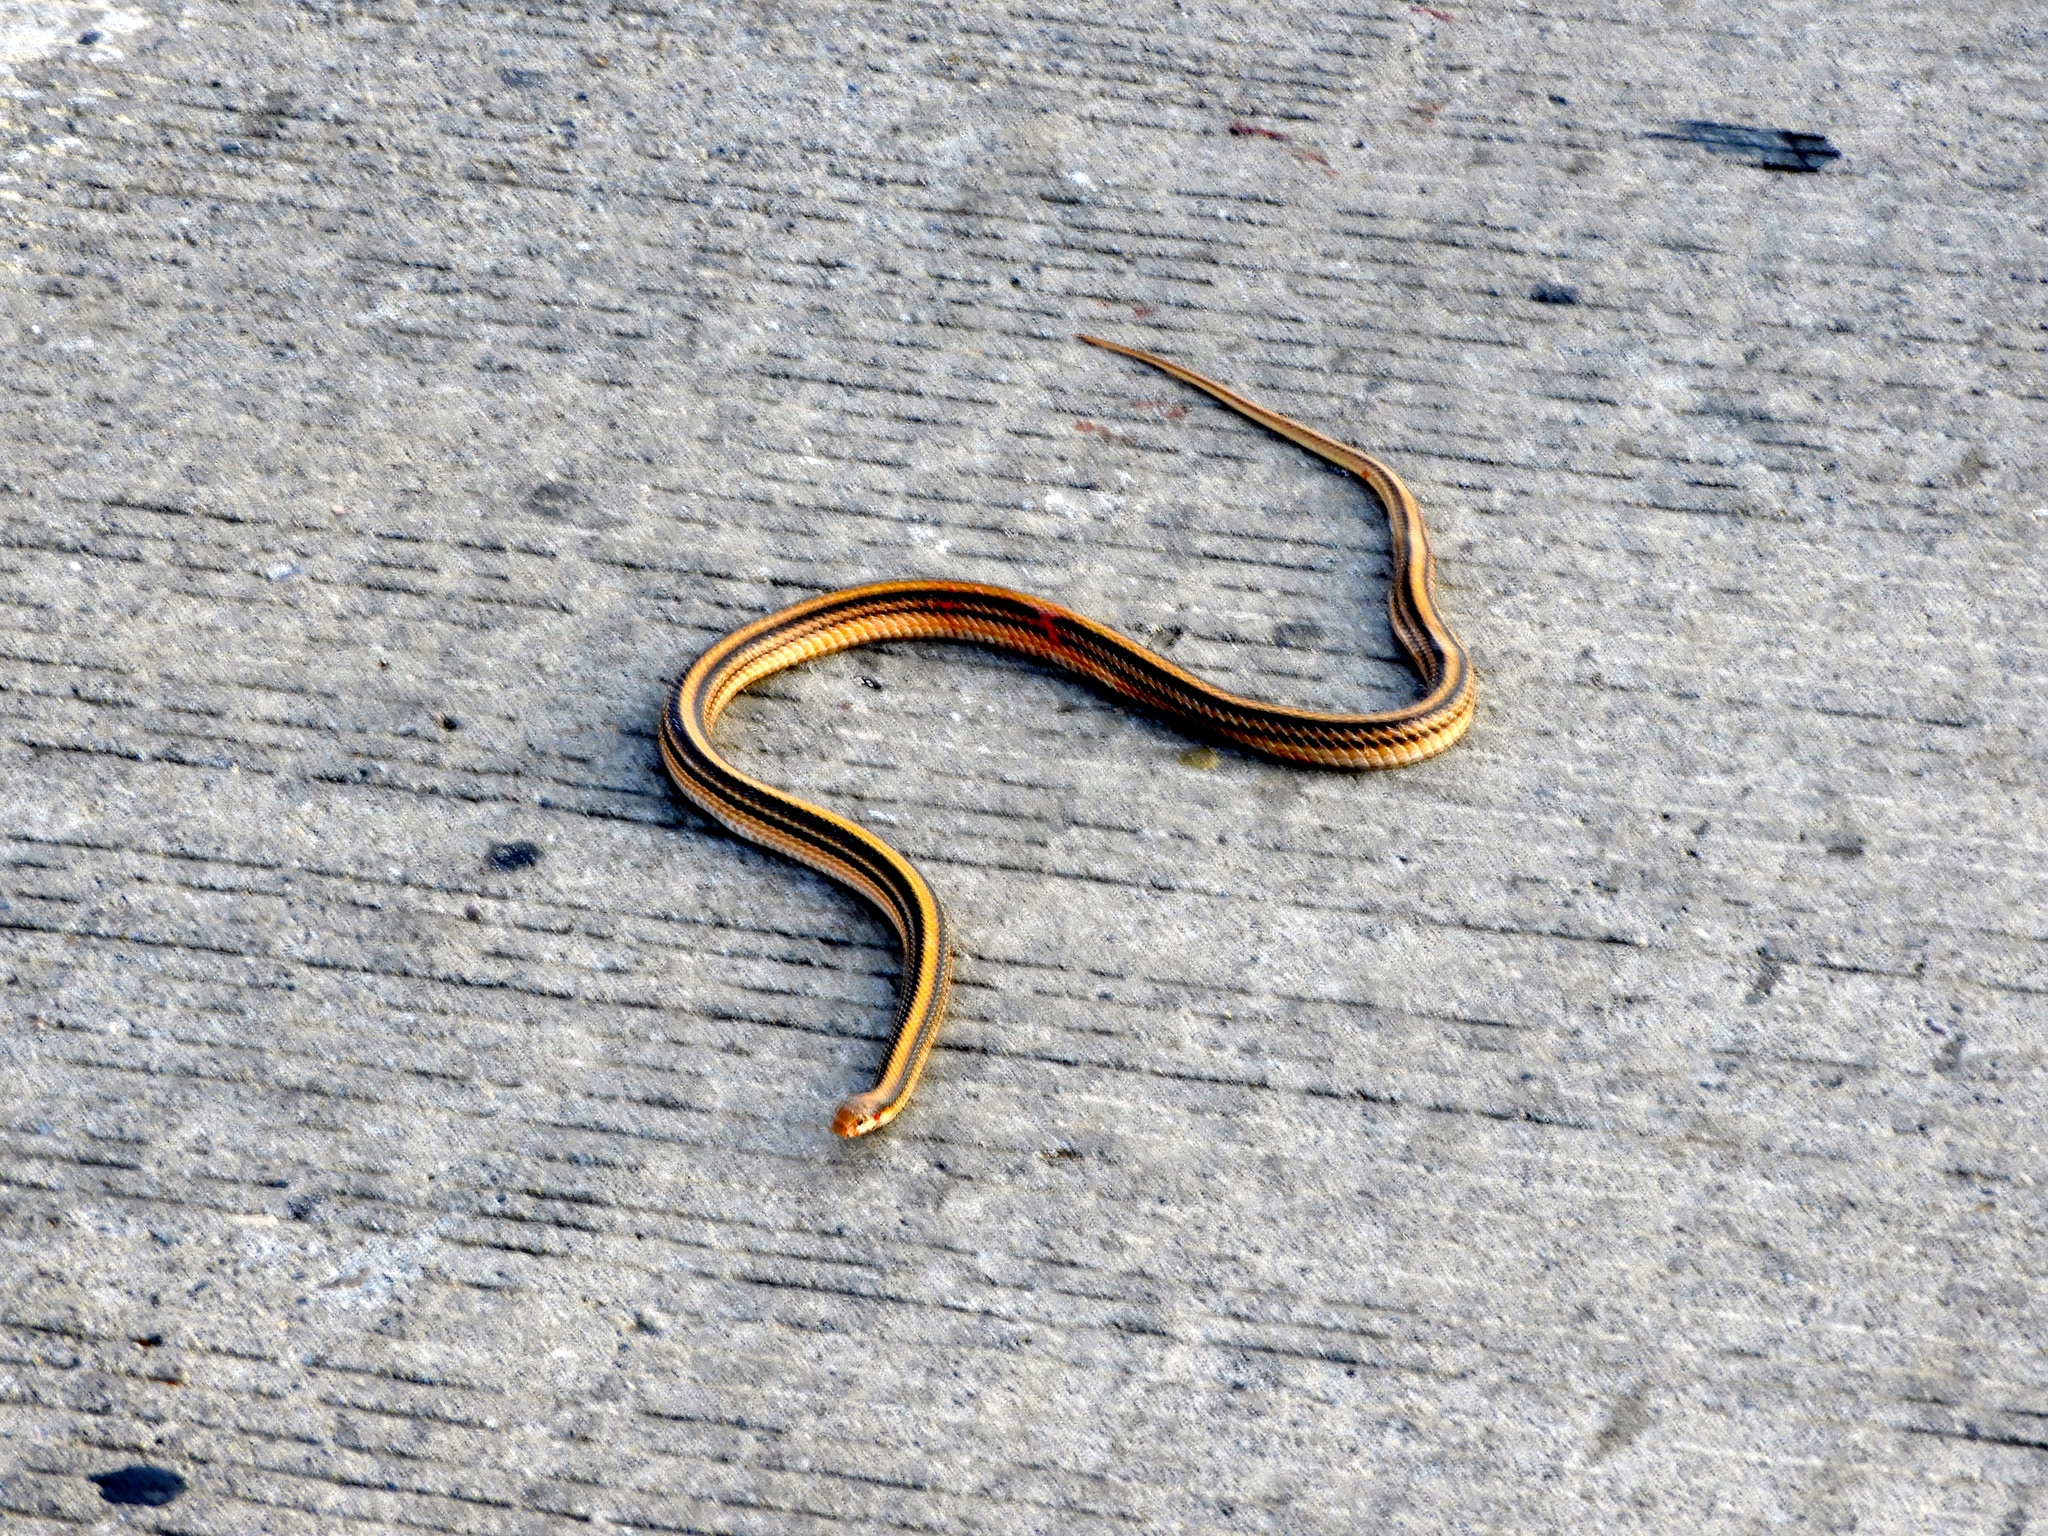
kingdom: Animalia
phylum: Chordata
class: Squamata
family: Colubridae
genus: Salvadora
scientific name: Salvadora deserticola
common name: Big bend patchnose snake
